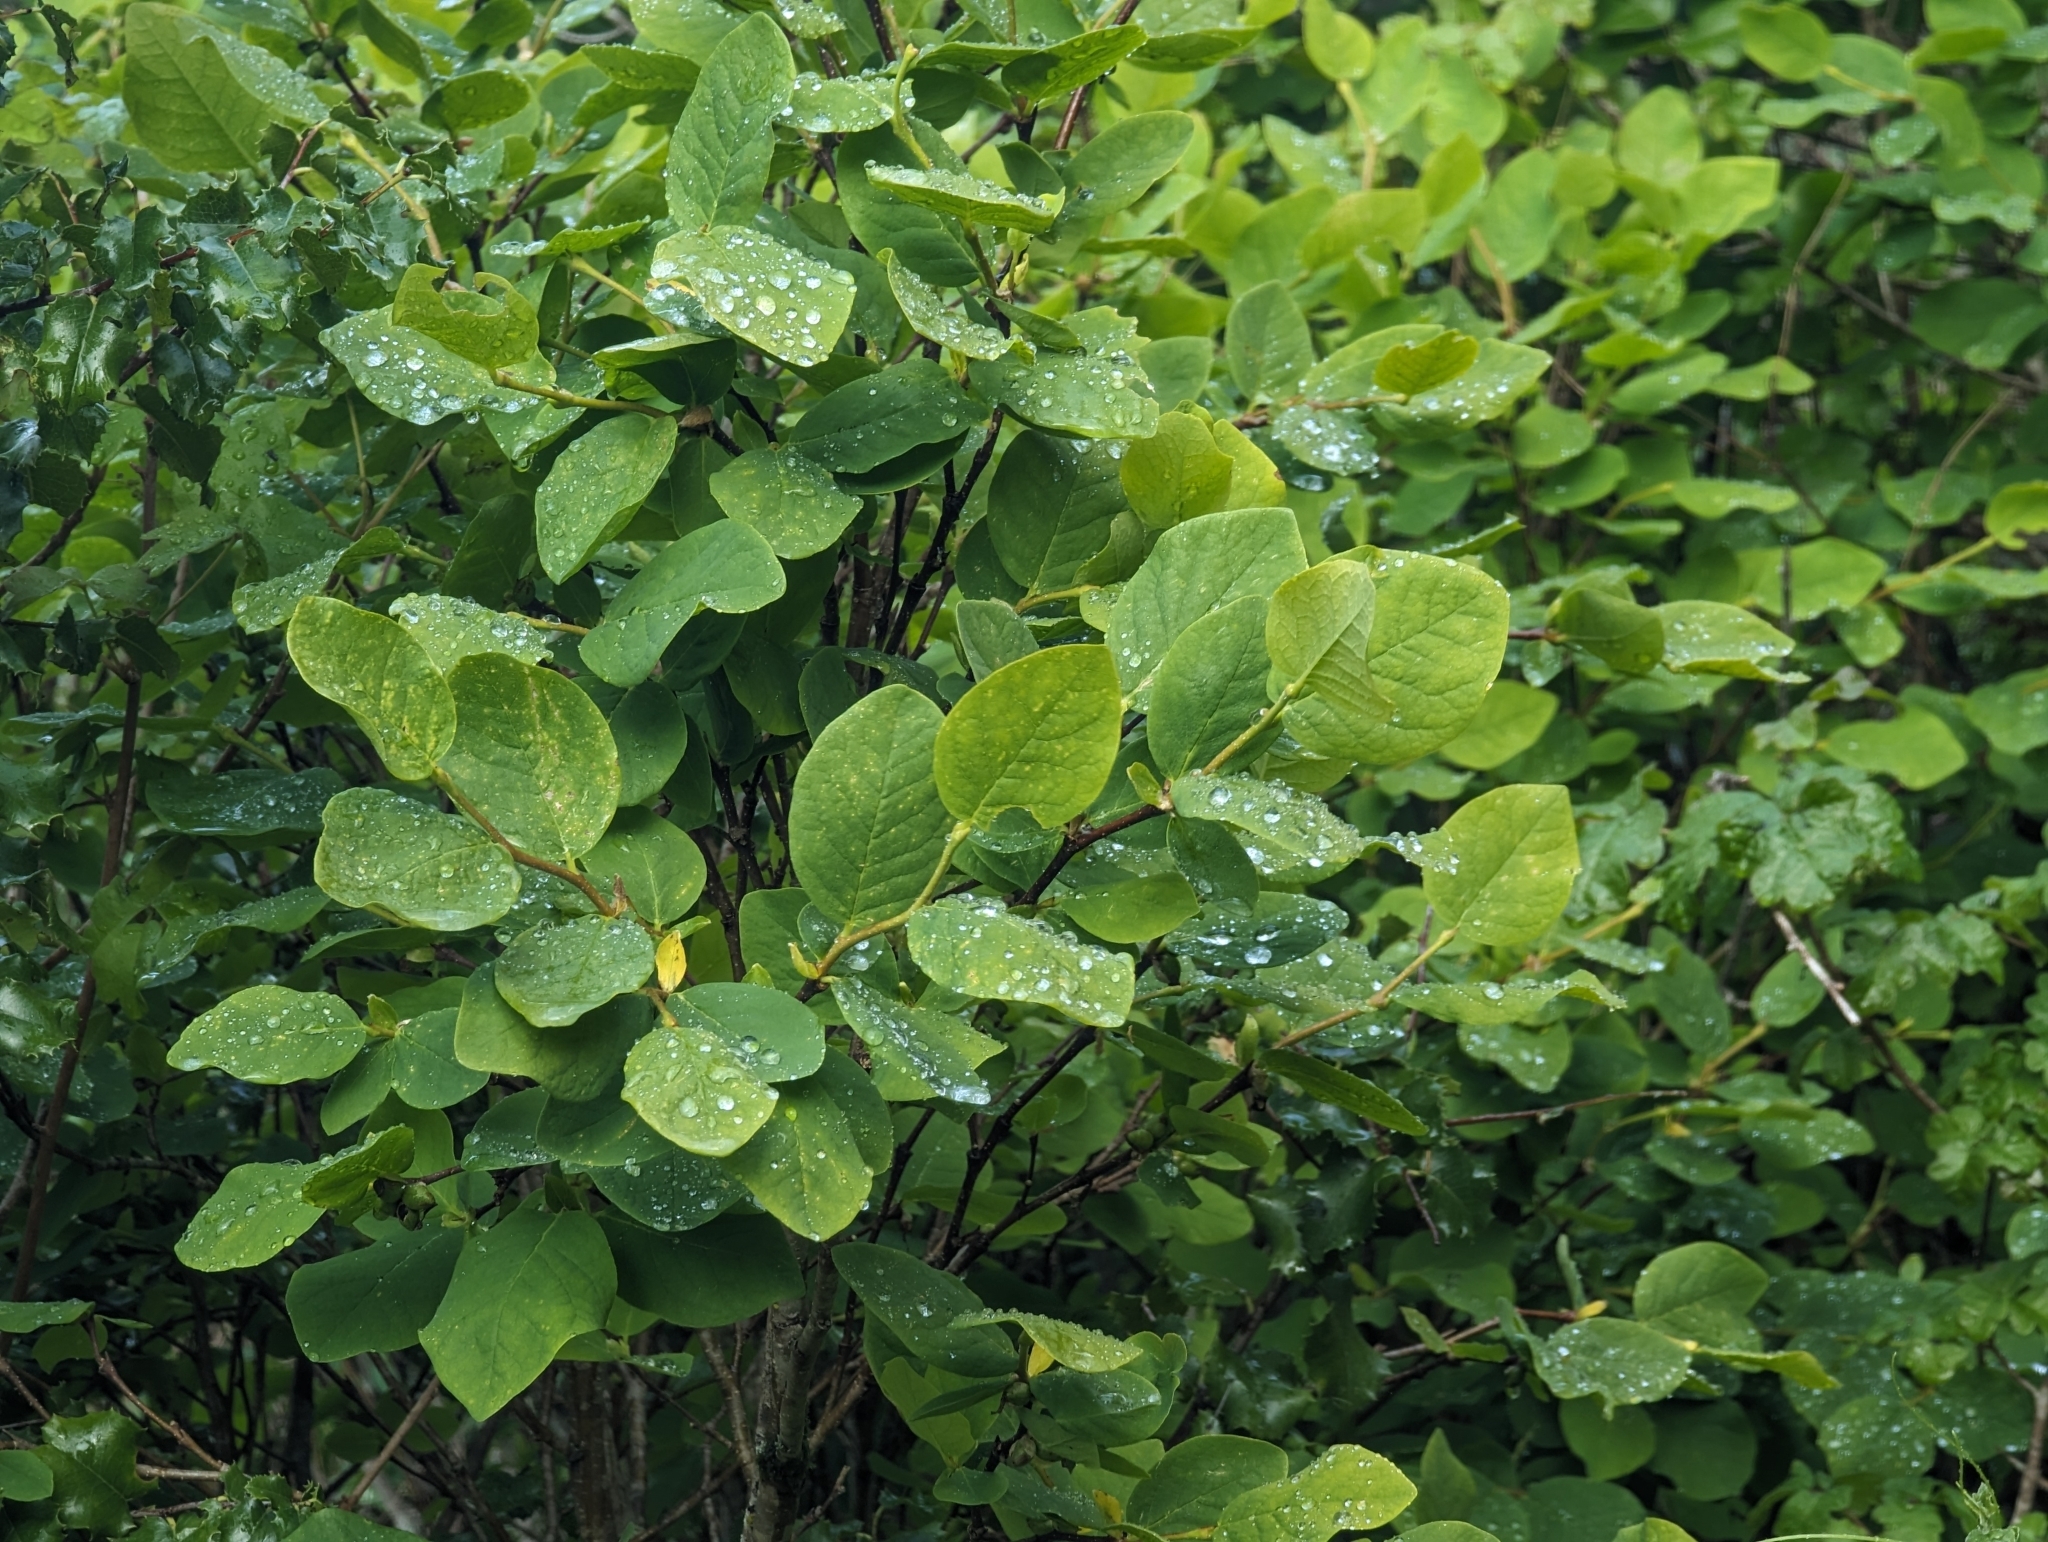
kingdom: Plantae
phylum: Tracheophyta
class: Magnoliopsida
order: Malvales
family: Thymelaeaceae
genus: Dirca
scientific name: Dirca occidentalis
